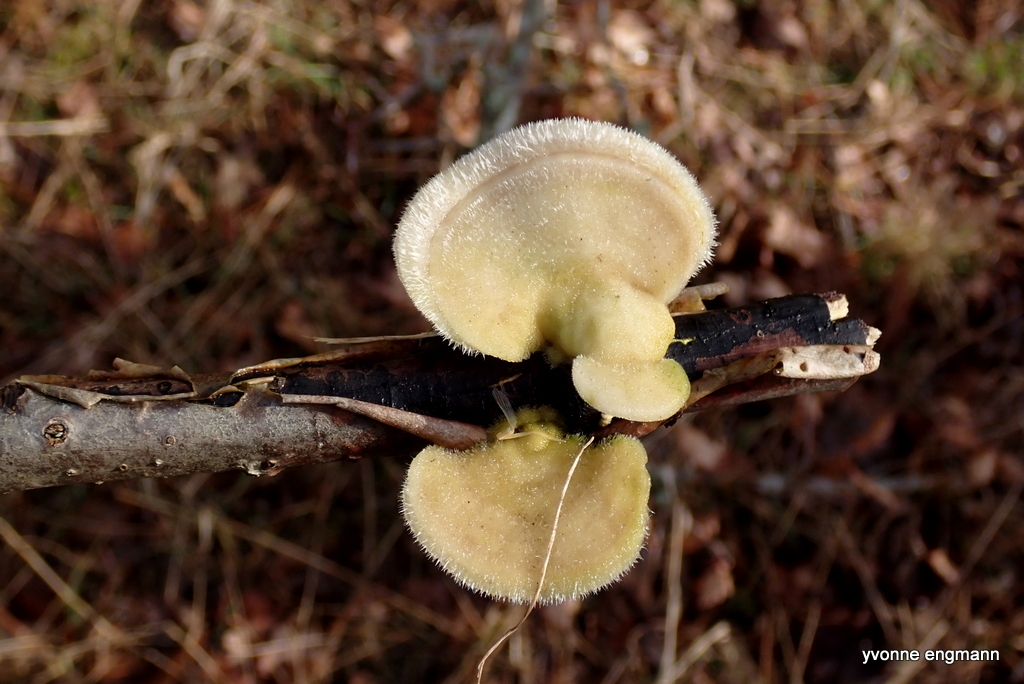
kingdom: Fungi
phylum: Basidiomycota
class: Agaricomycetes
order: Polyporales
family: Polyporaceae
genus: Trametes
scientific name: Trametes hirsuta
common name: Hairy bracket
